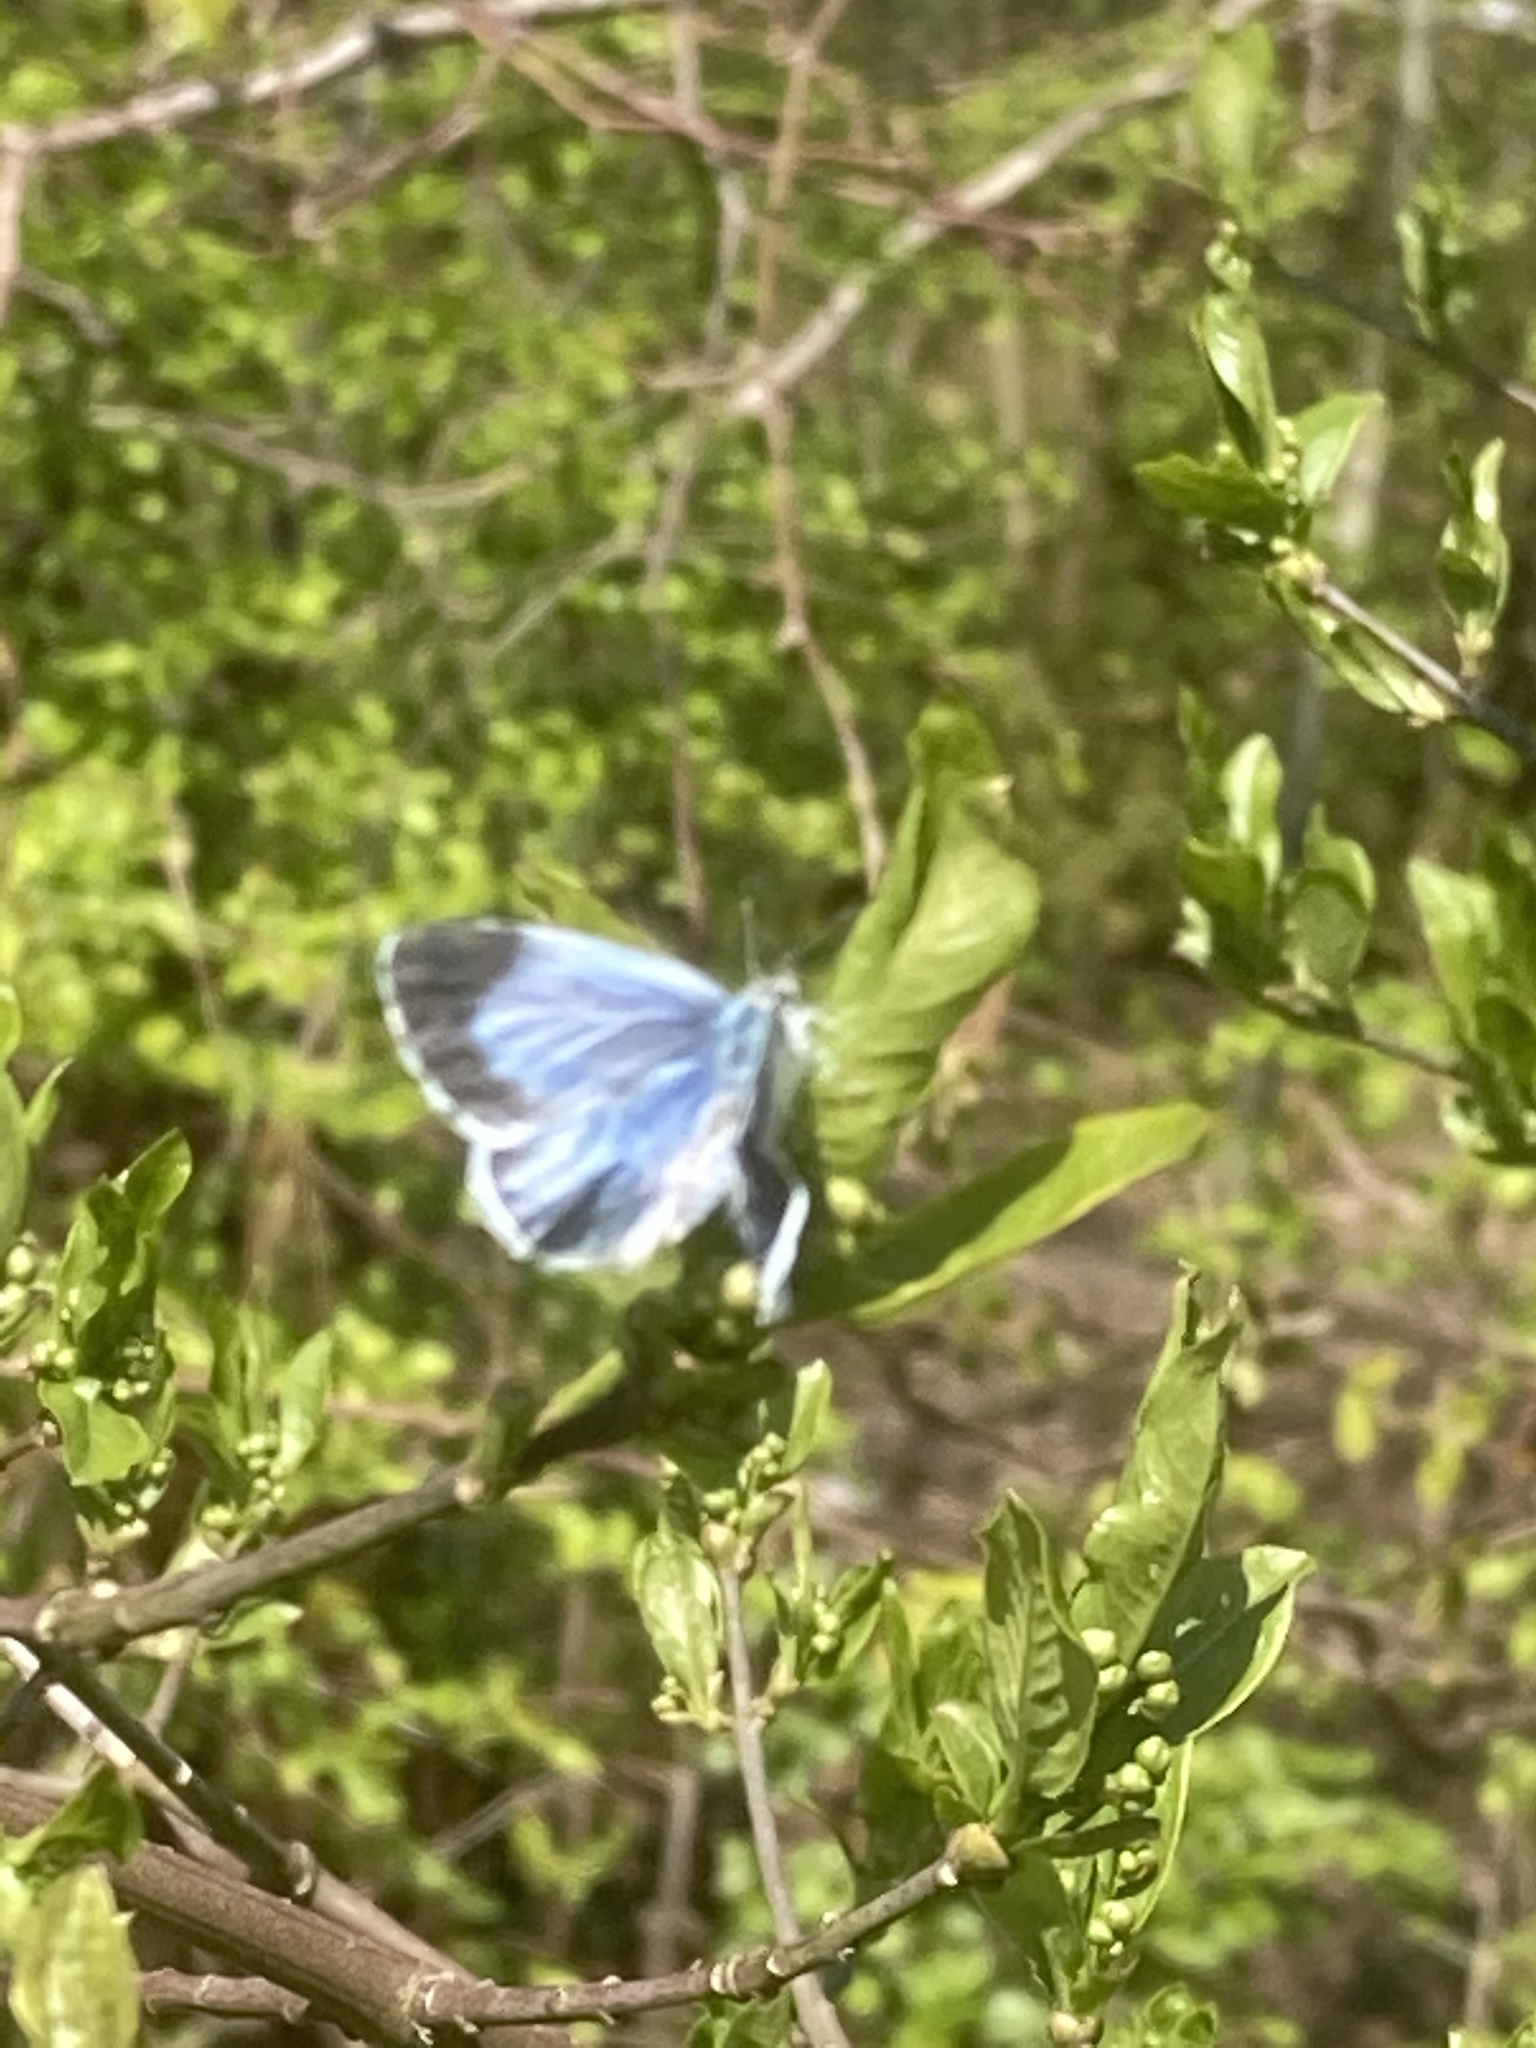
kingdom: Animalia
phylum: Arthropoda
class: Insecta
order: Lepidoptera
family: Lycaenidae
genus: Celastrina
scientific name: Celastrina argiolus
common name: Holly blue
